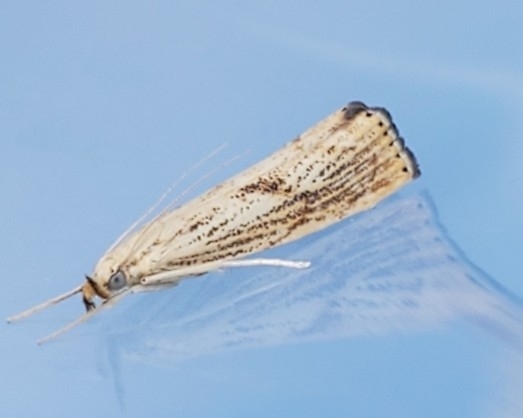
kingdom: Animalia
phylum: Arthropoda
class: Insecta
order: Lepidoptera
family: Crambidae
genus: Agriphila
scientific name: Agriphila ruricolellus
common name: Lesser vagabond sod webworm
